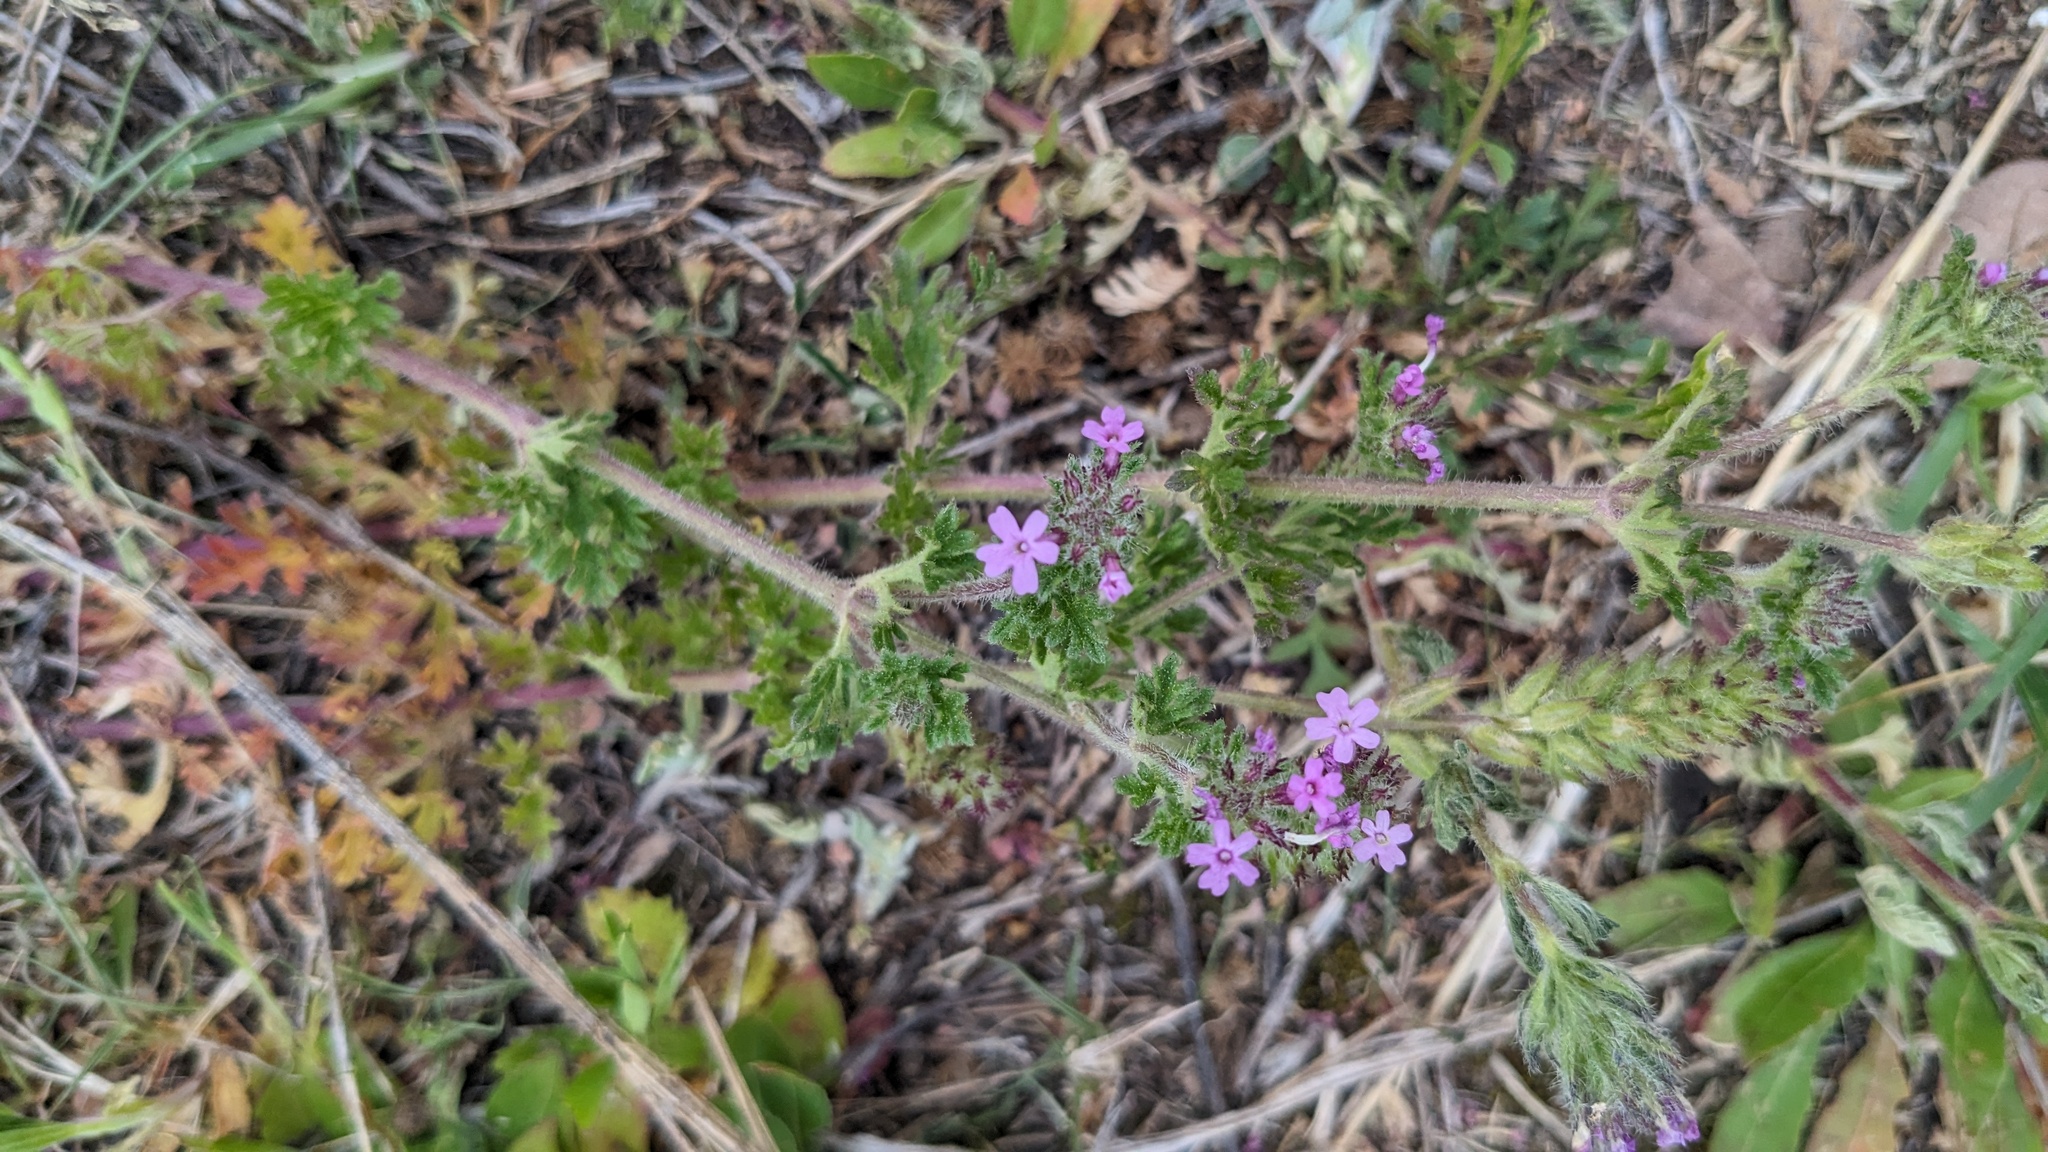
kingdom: Plantae
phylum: Tracheophyta
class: Magnoliopsida
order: Lamiales
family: Verbenaceae
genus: Verbena
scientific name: Verbena pumila
